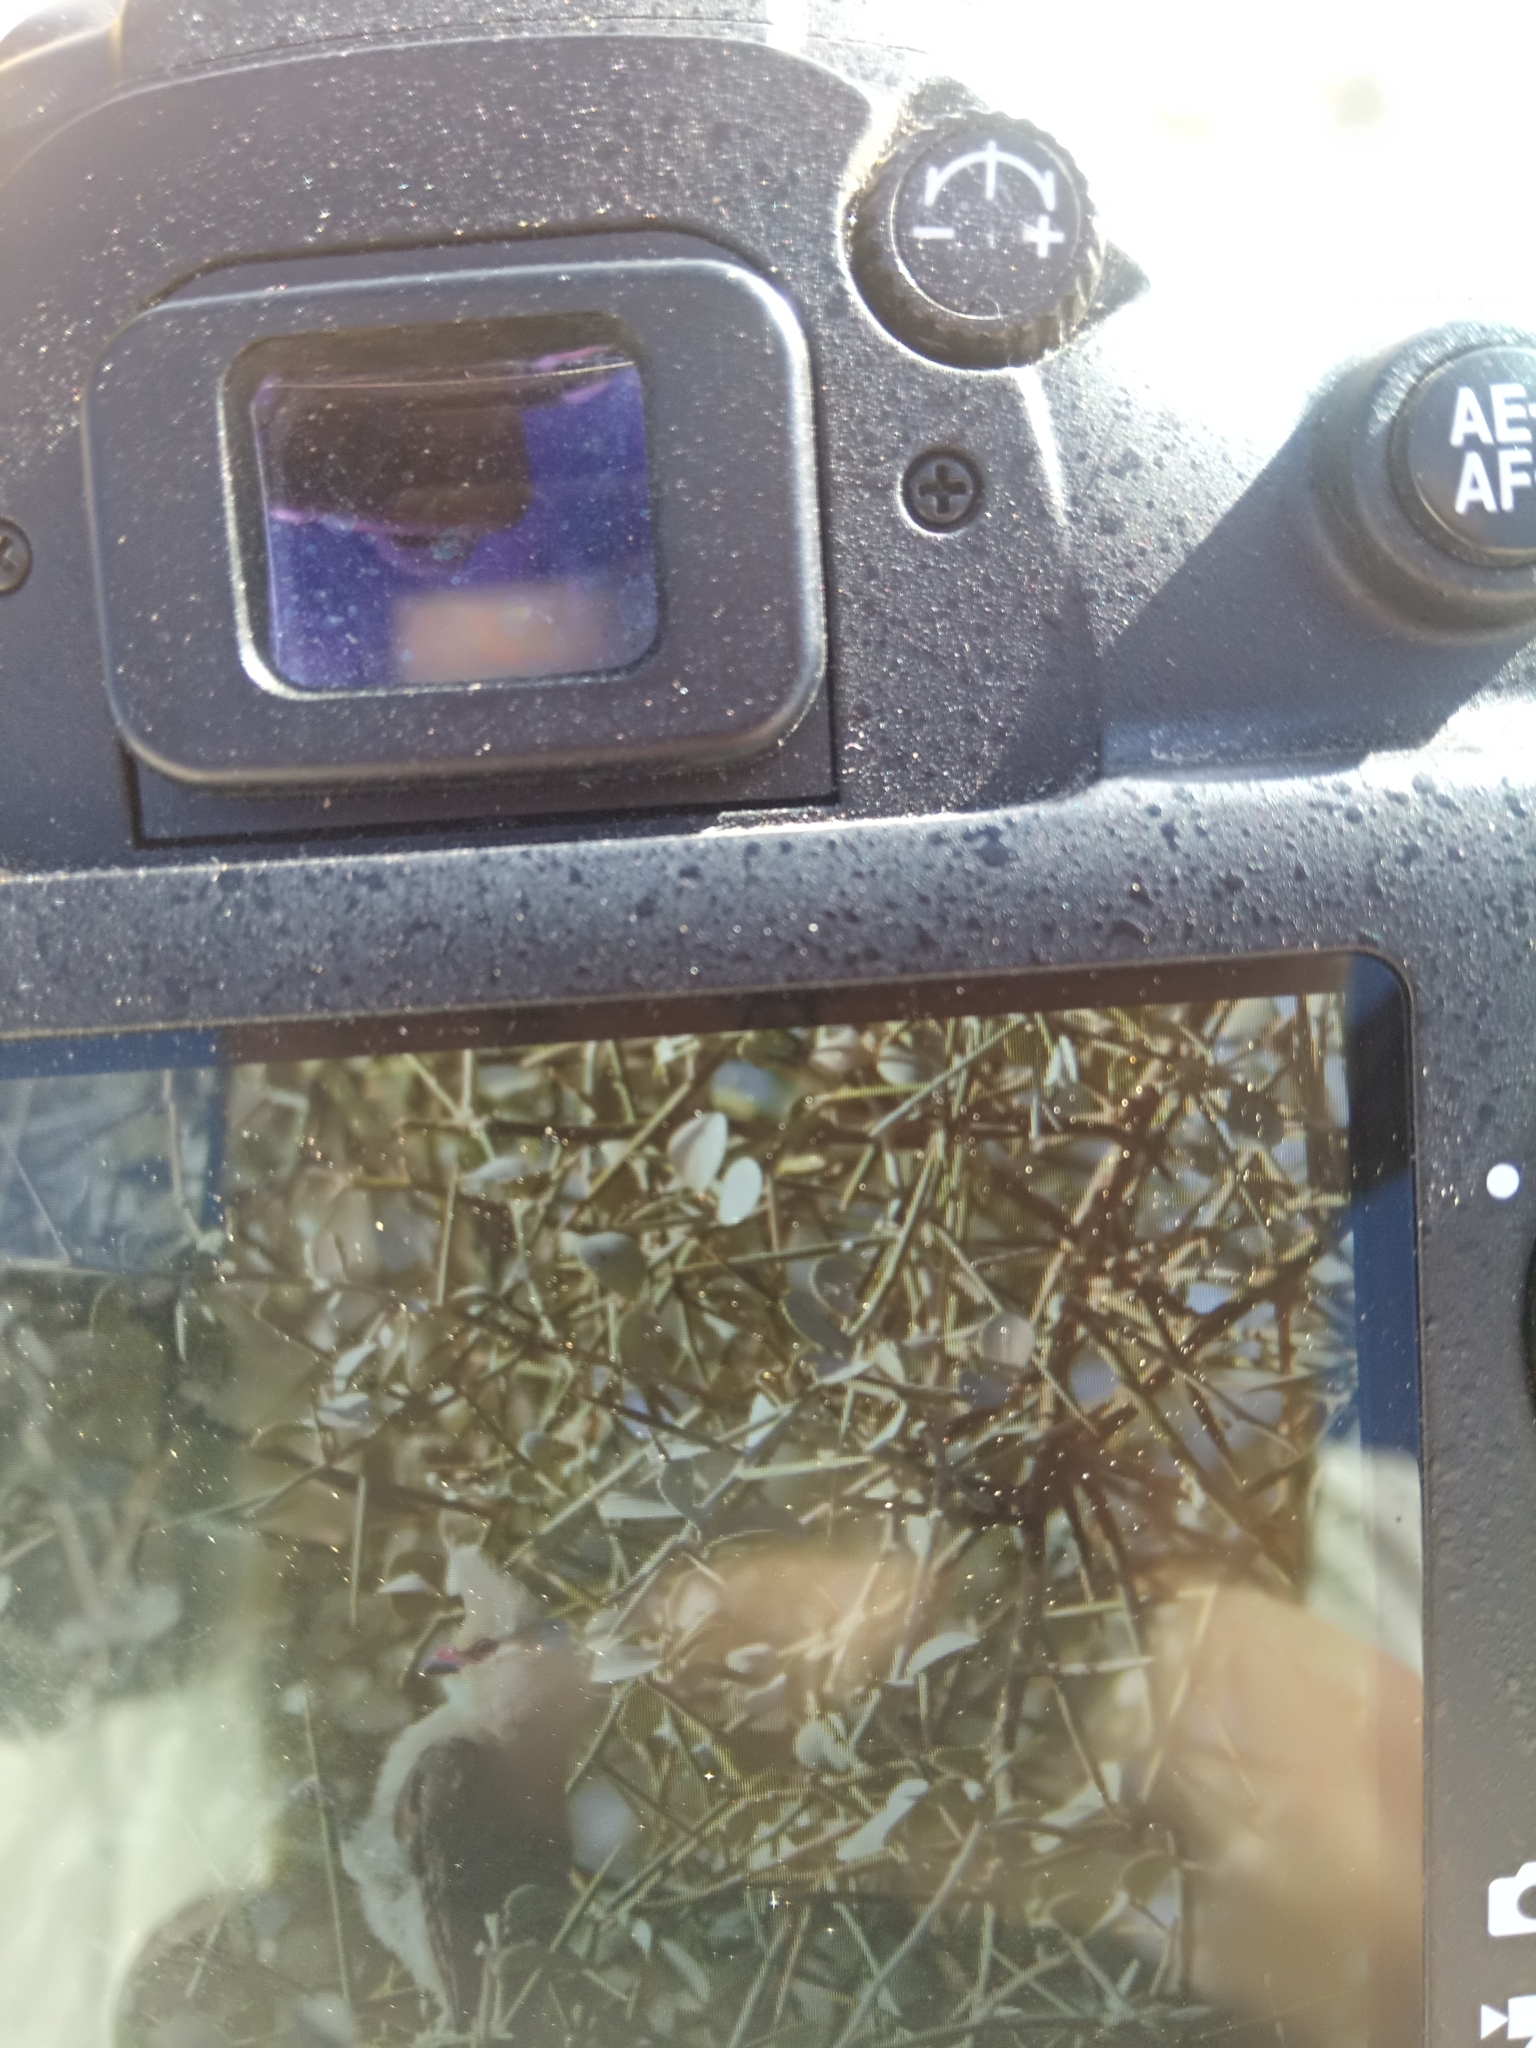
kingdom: Animalia
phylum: Chordata
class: Aves
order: Coliiformes
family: Coliidae
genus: Urocolius
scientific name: Urocolius macrourus
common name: Blue-naped mousebird
